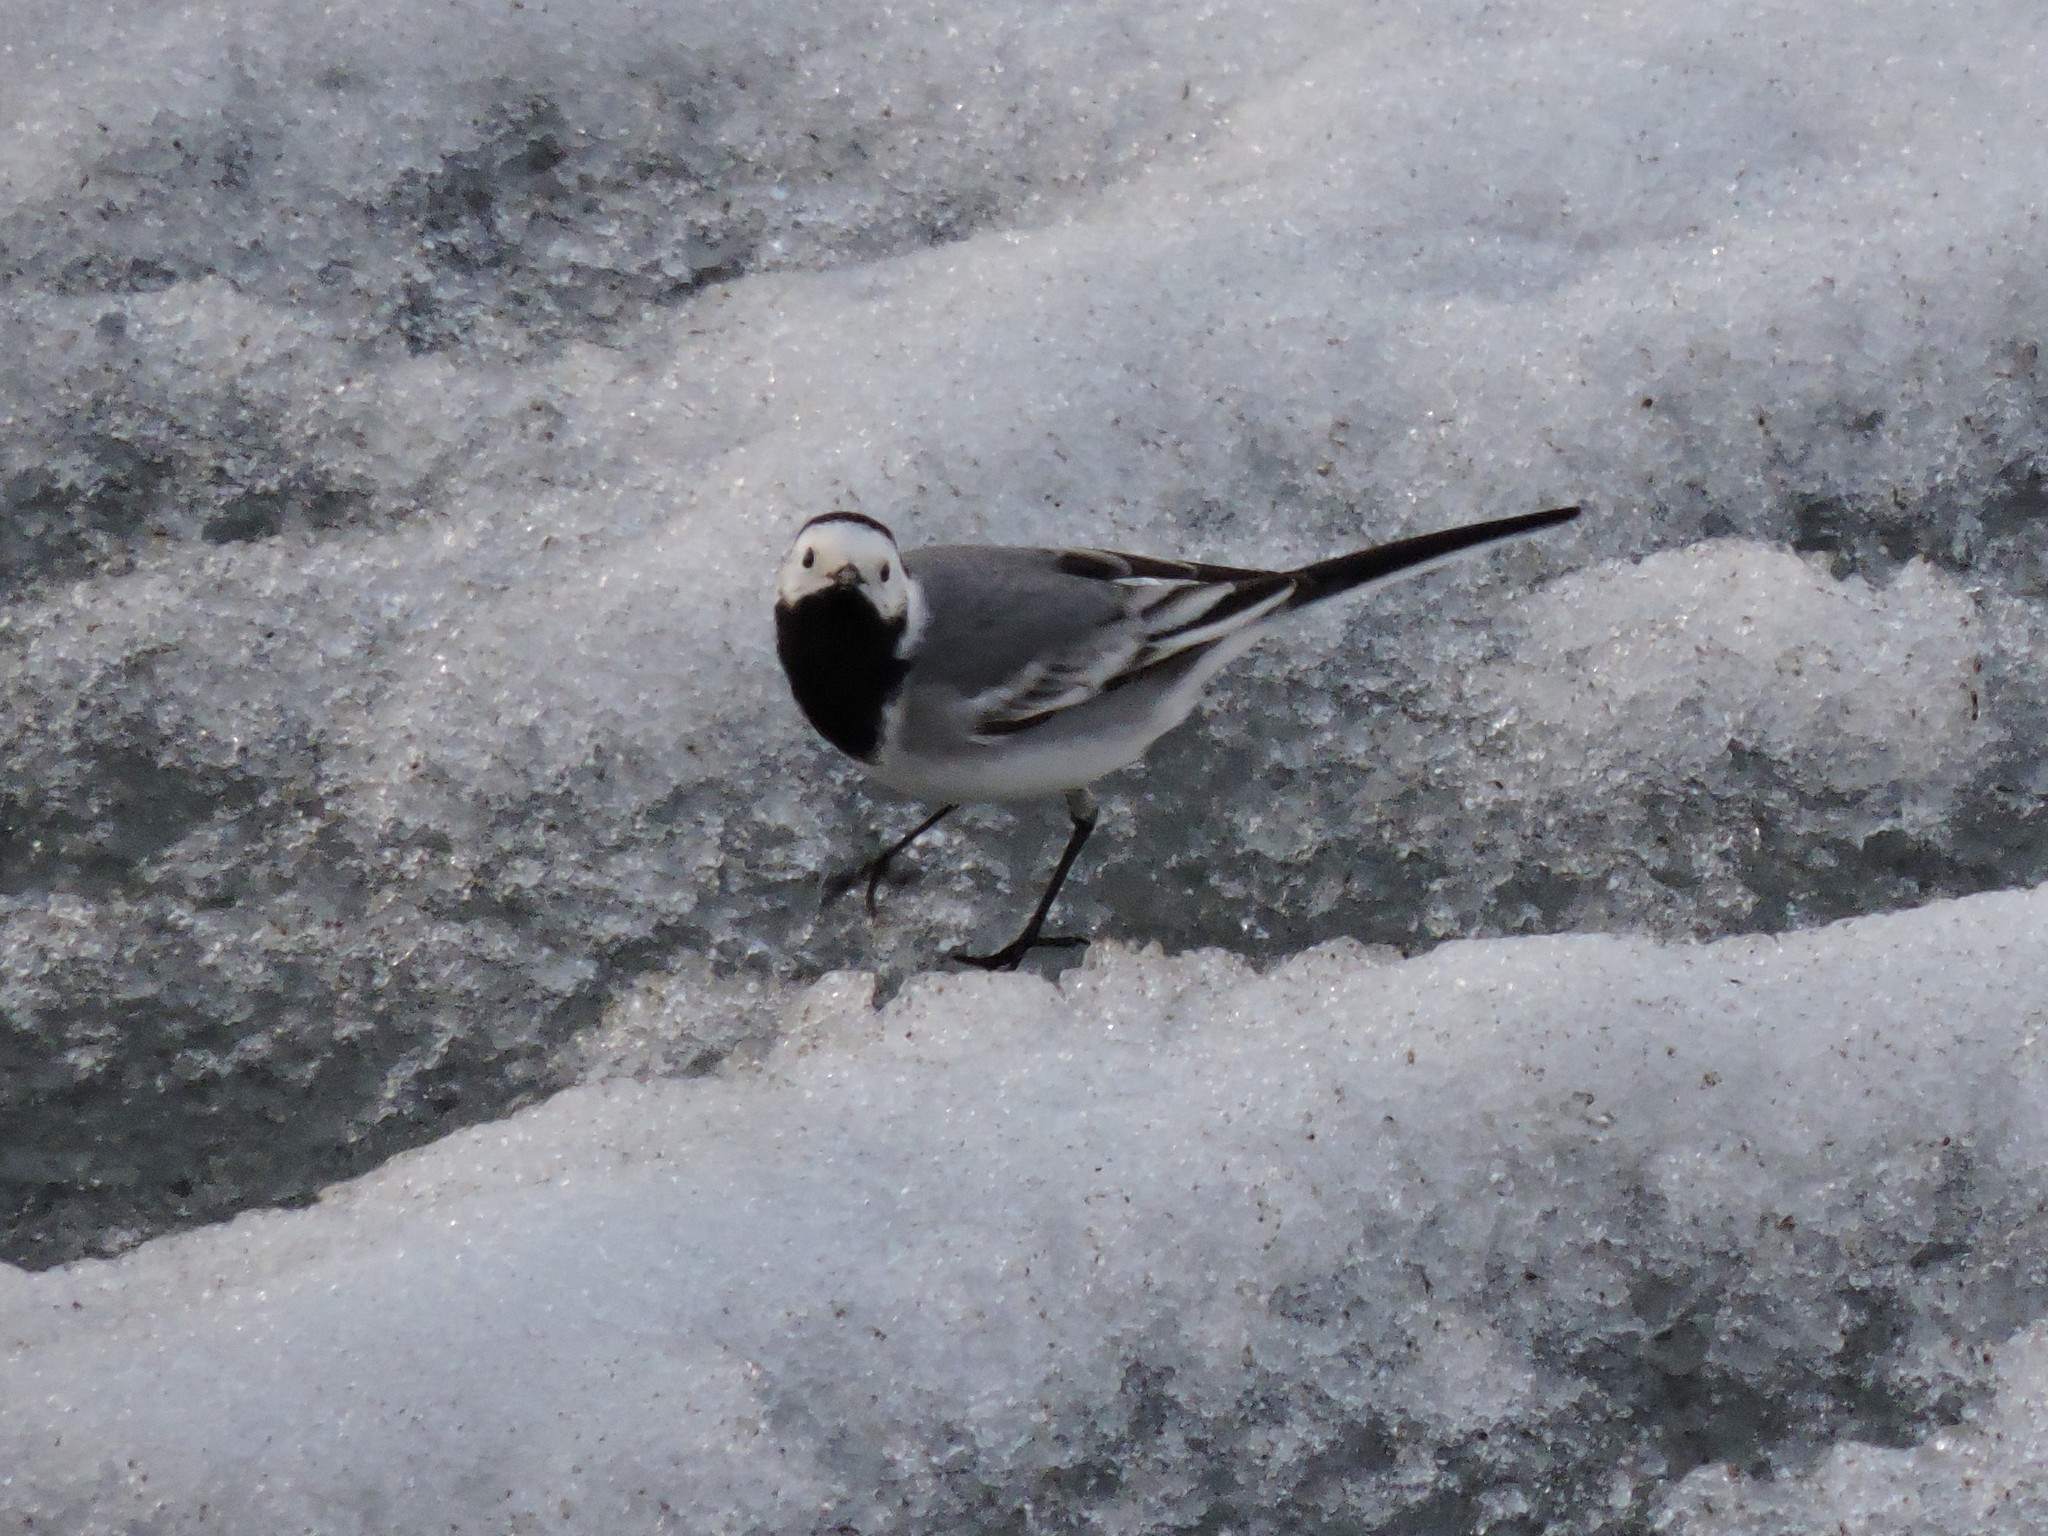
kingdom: Animalia
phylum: Chordata
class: Aves
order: Passeriformes
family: Motacillidae
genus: Motacilla
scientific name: Motacilla alba
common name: White wagtail
